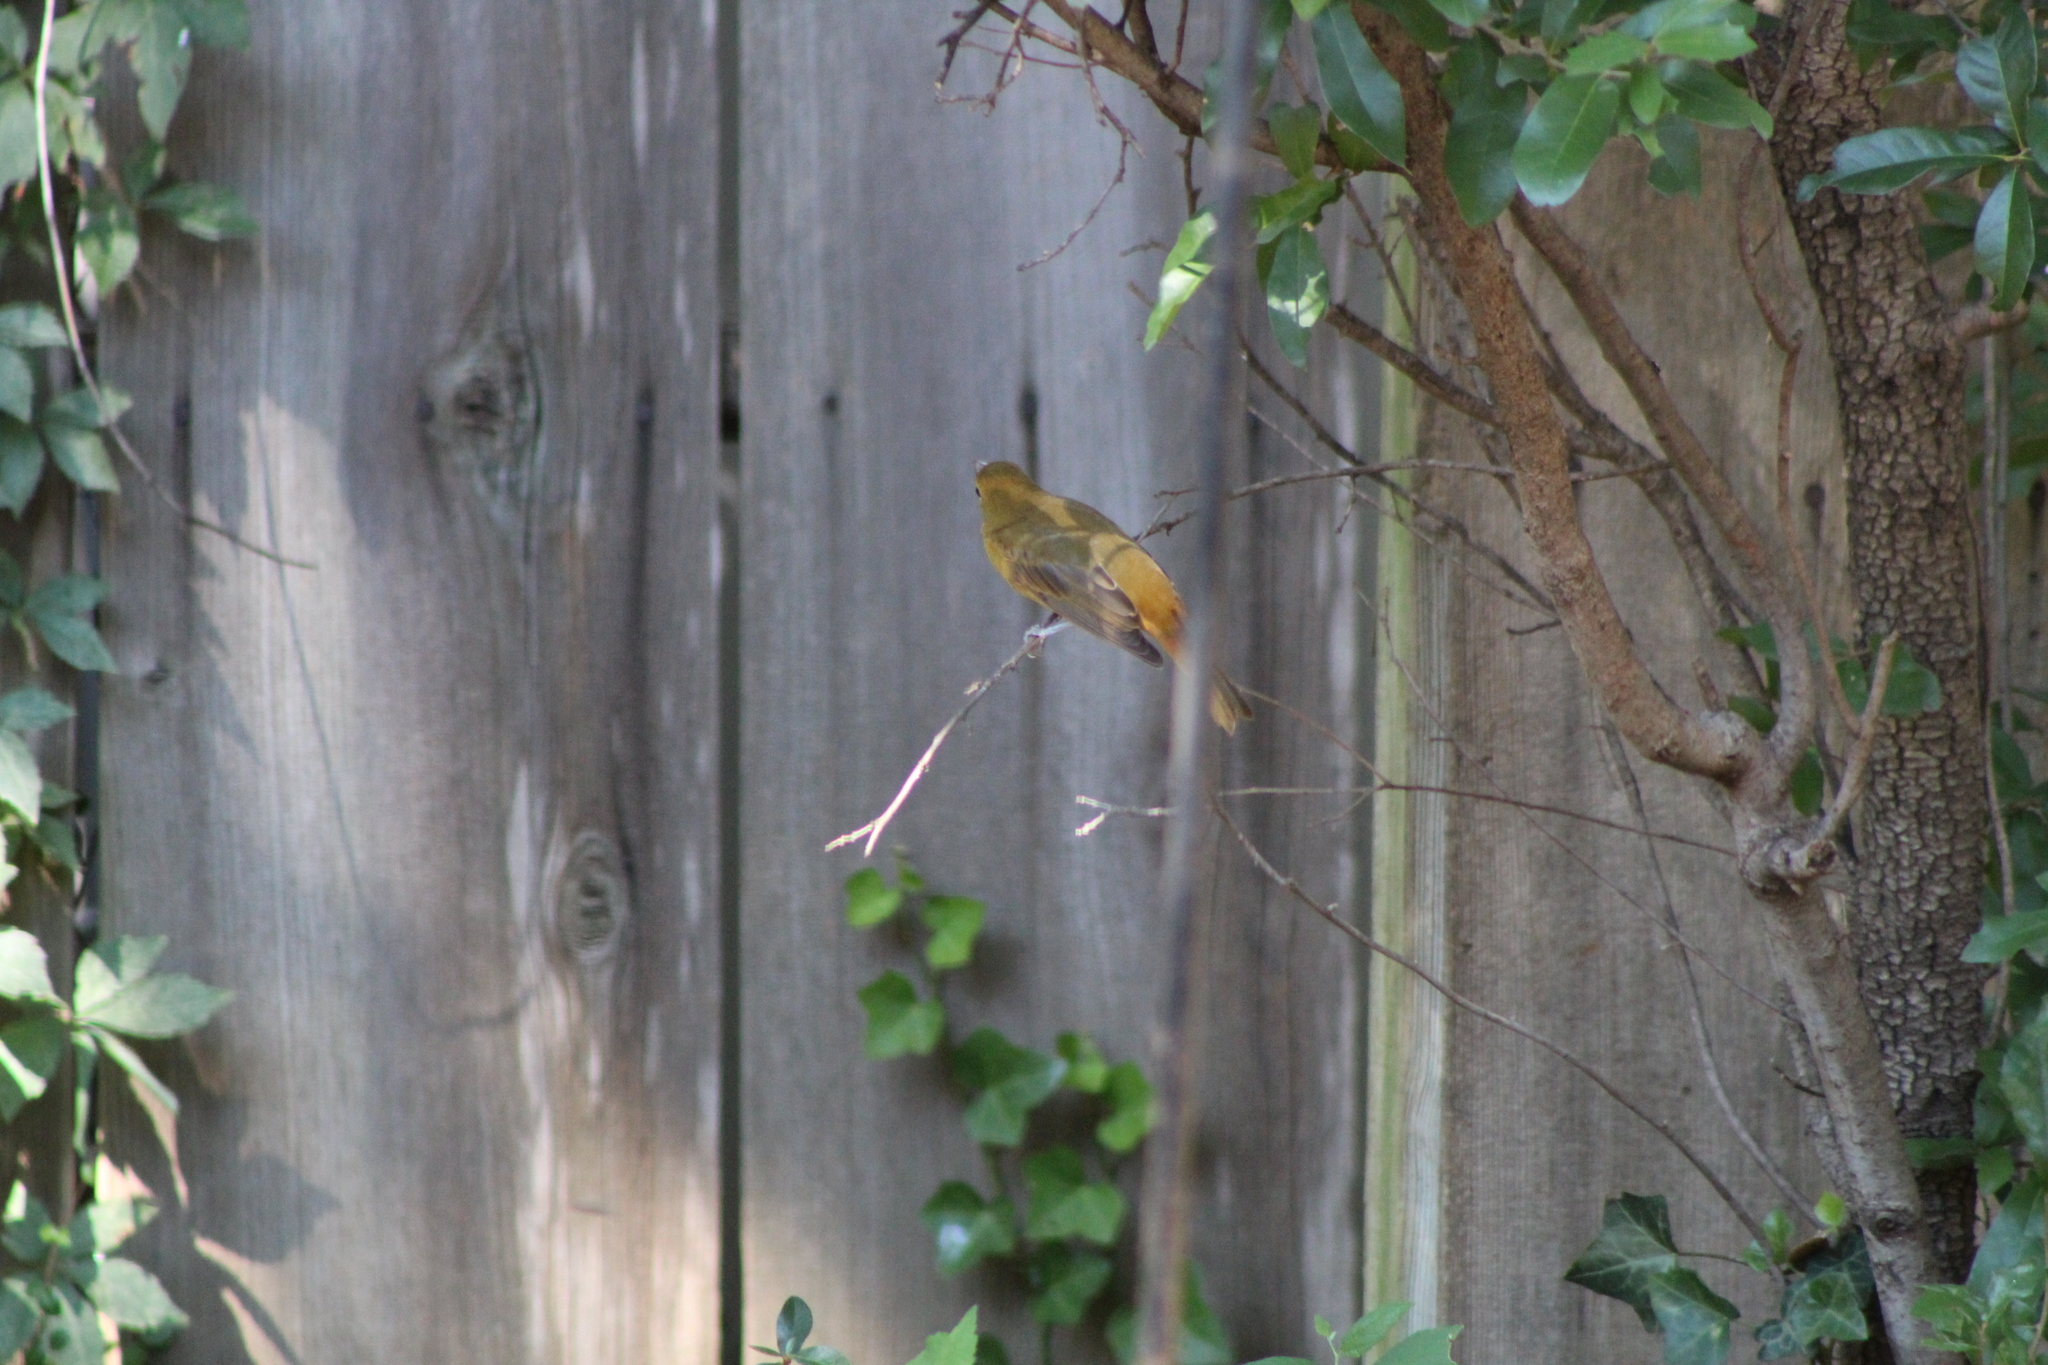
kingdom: Animalia
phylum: Chordata
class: Aves
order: Passeriformes
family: Cardinalidae
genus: Piranga
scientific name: Piranga rubra
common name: Summer tanager
